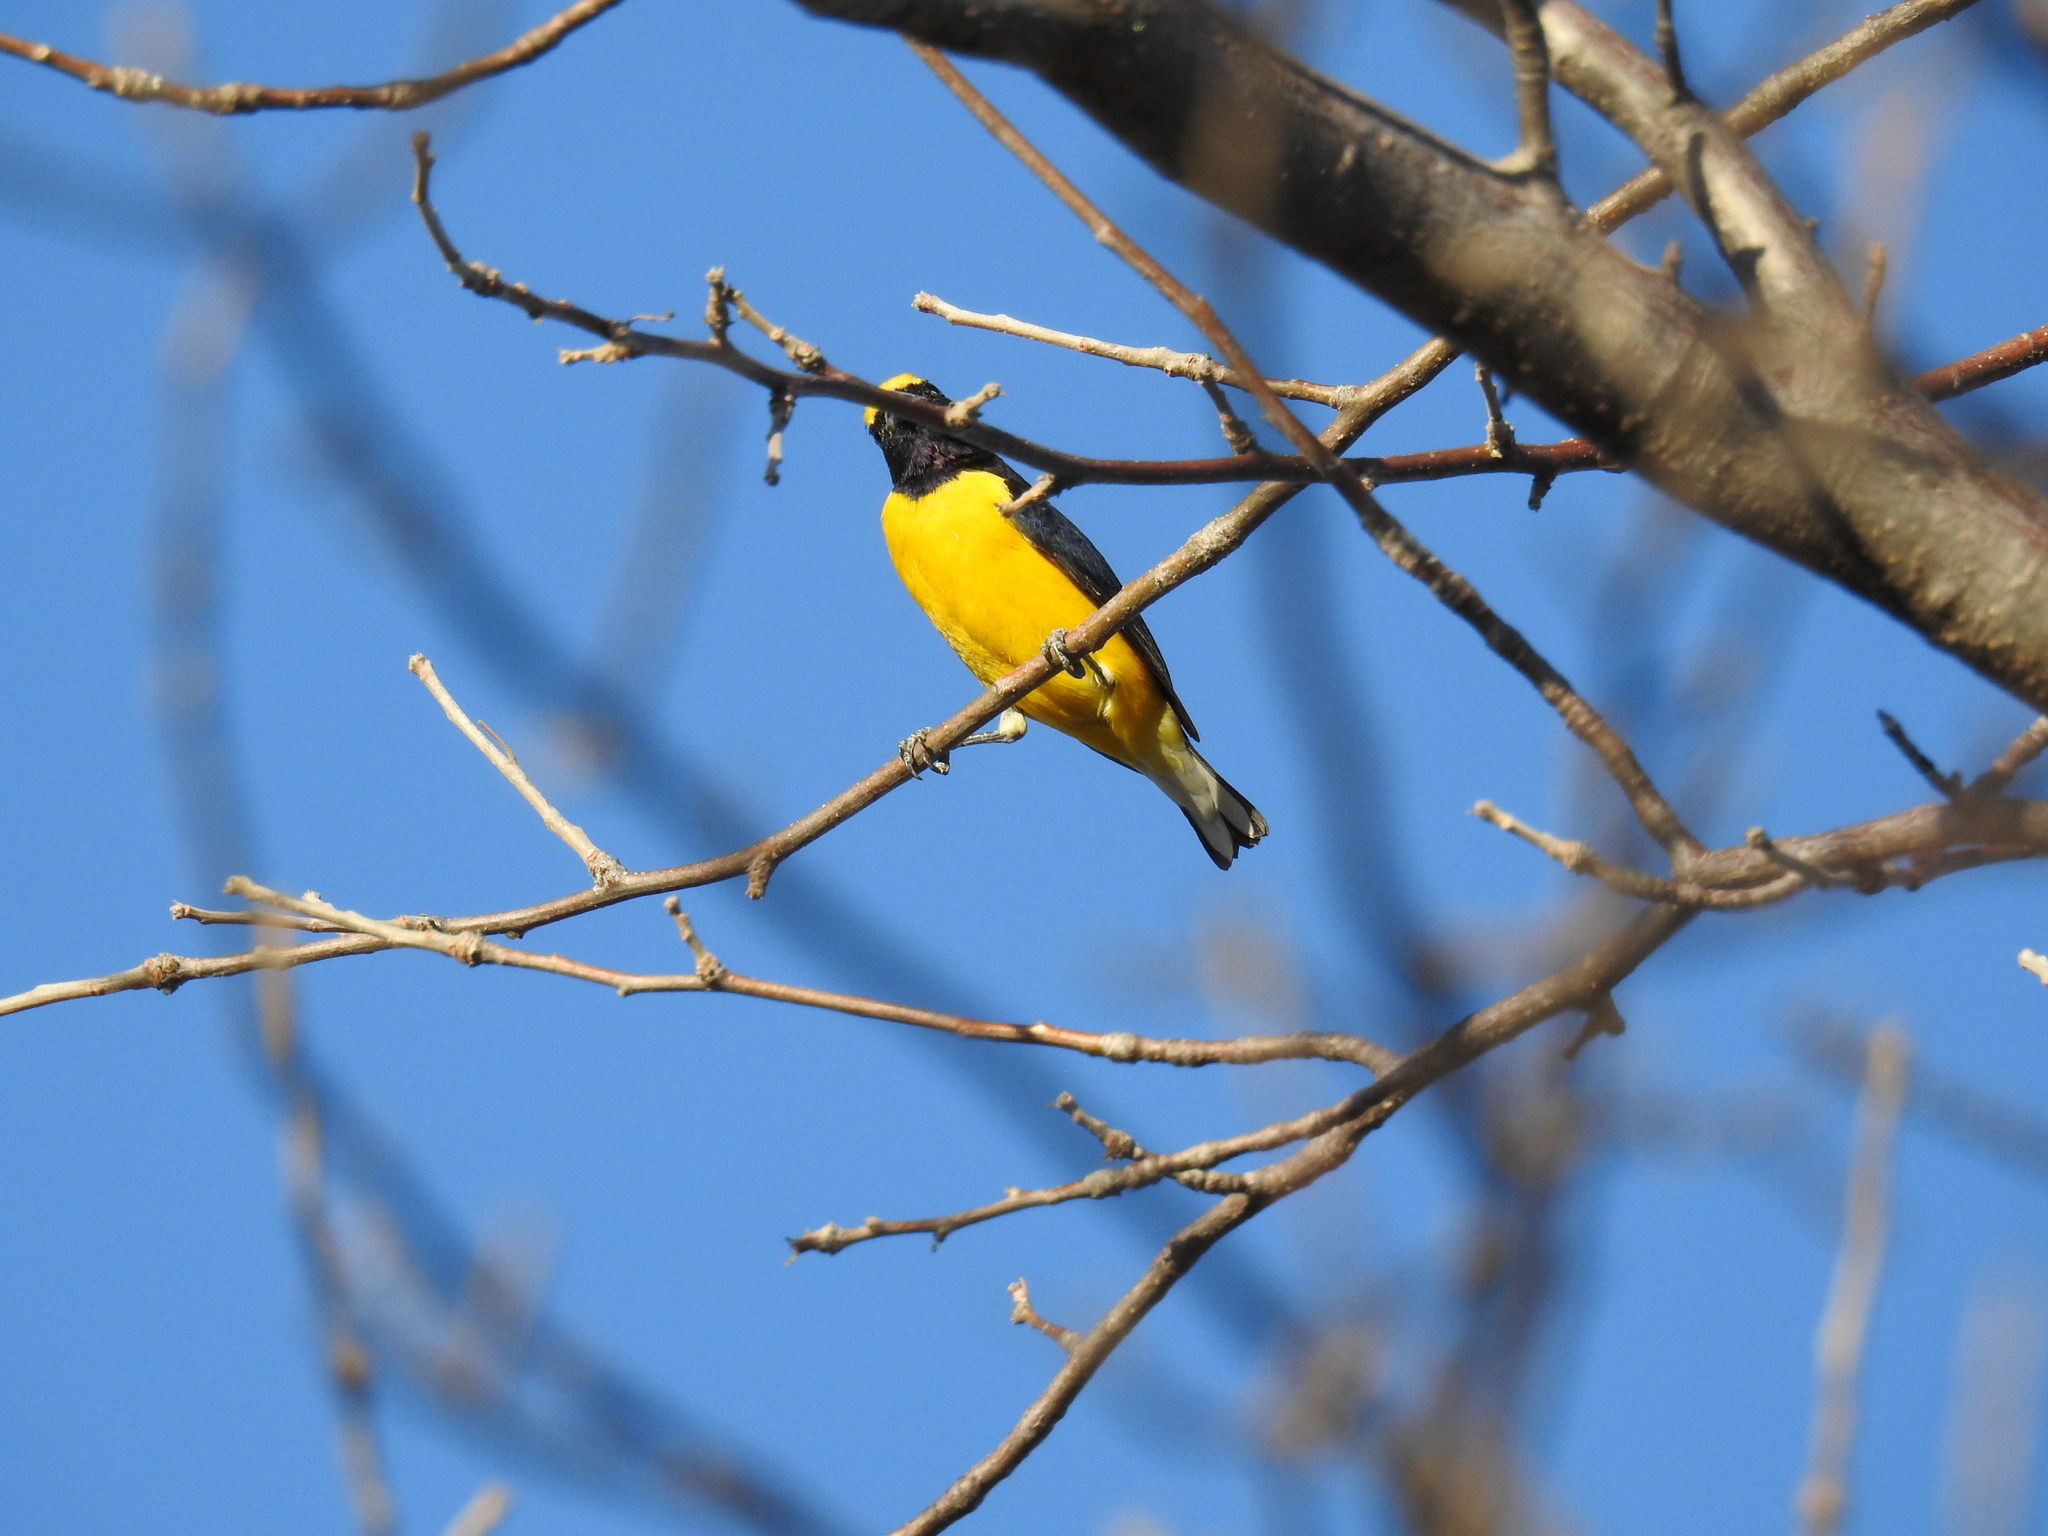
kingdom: Animalia
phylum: Chordata
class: Aves
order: Passeriformes
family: Fringillidae
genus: Euphonia
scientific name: Euphonia godmani
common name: West mexican euphonia
